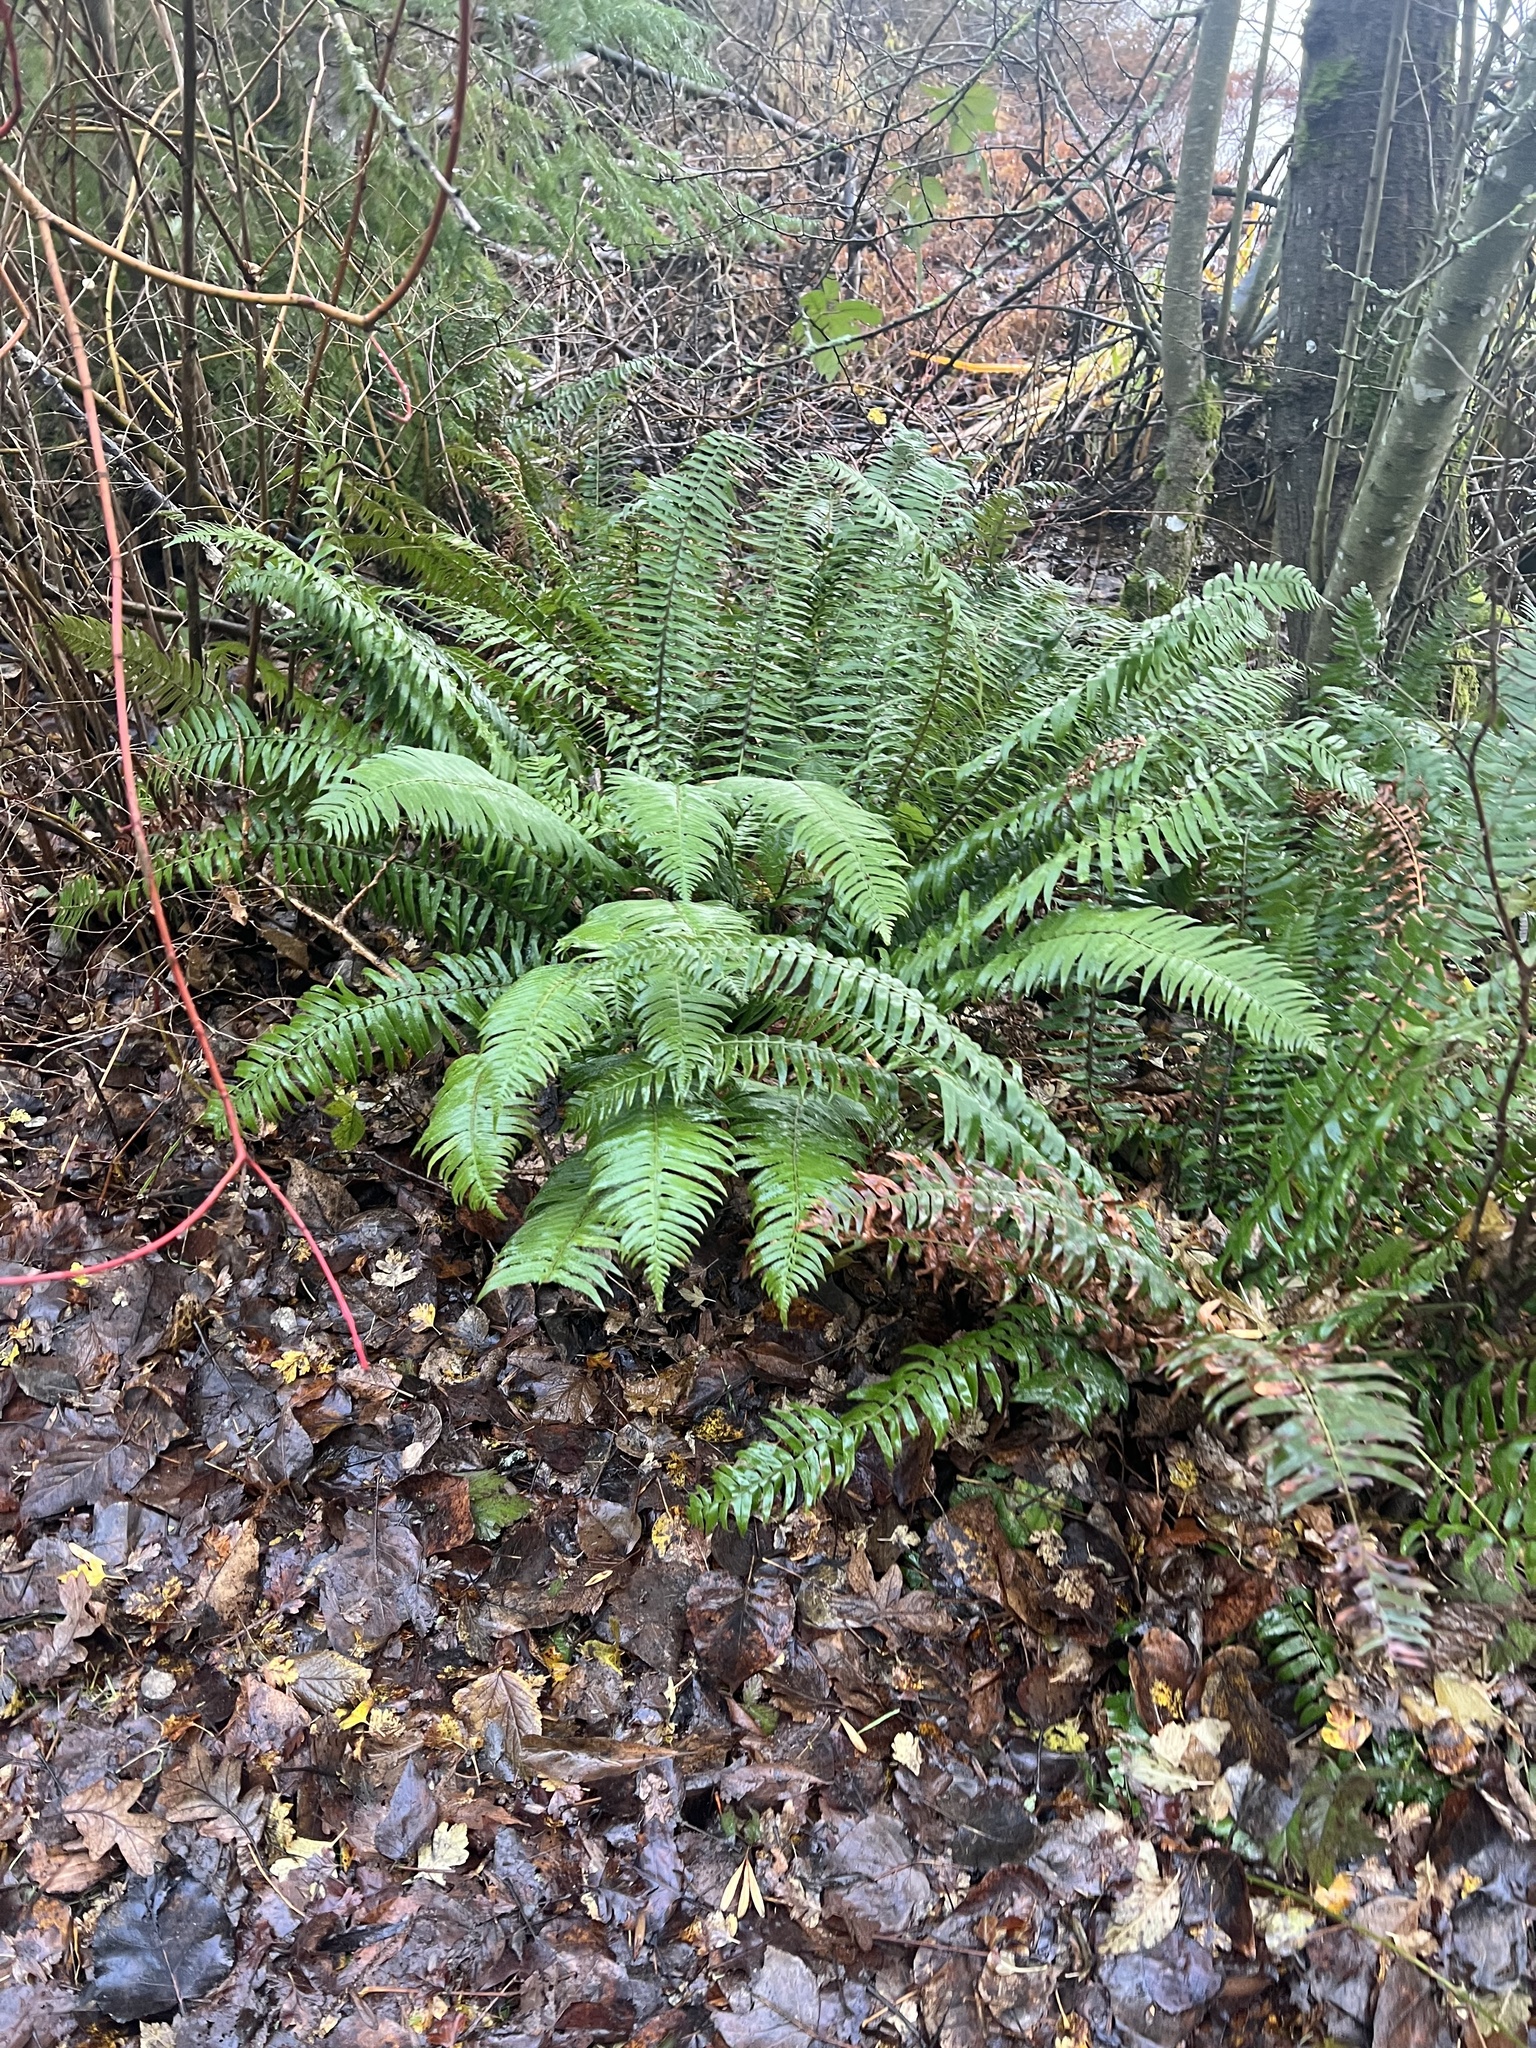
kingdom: Plantae
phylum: Tracheophyta
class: Polypodiopsida
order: Polypodiales
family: Dryopteridaceae
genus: Polystichum
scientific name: Polystichum munitum
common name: Western sword-fern
